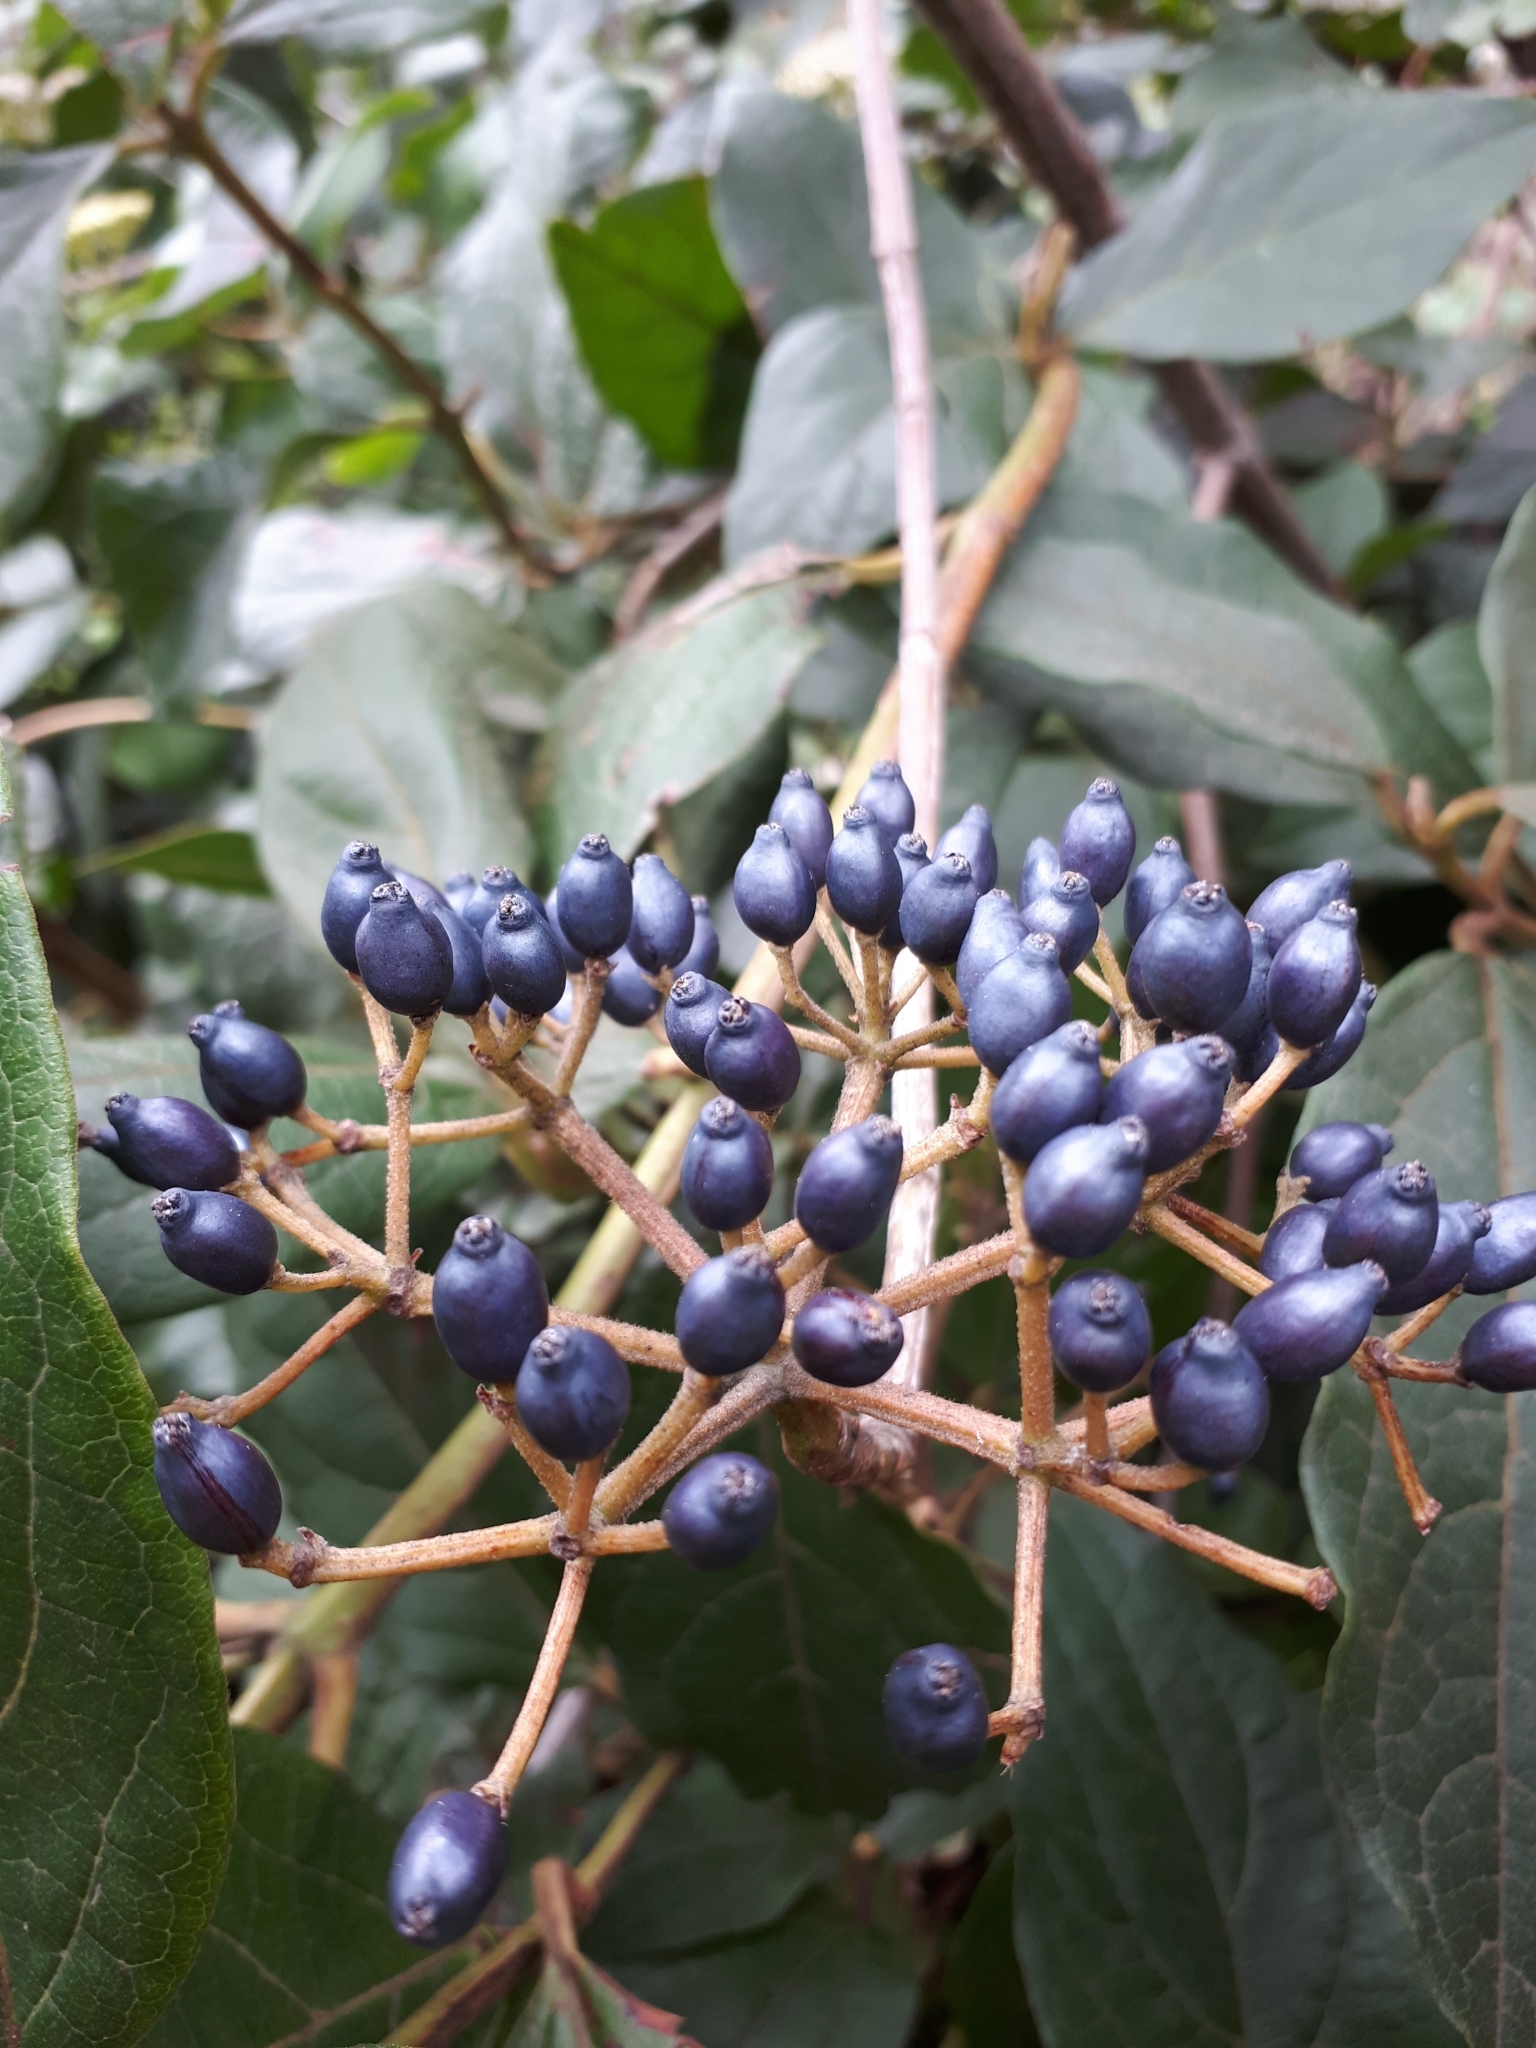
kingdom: Plantae
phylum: Tracheophyta
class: Magnoliopsida
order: Dipsacales
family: Viburnaceae
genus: Viburnum
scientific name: Viburnum rugosum
